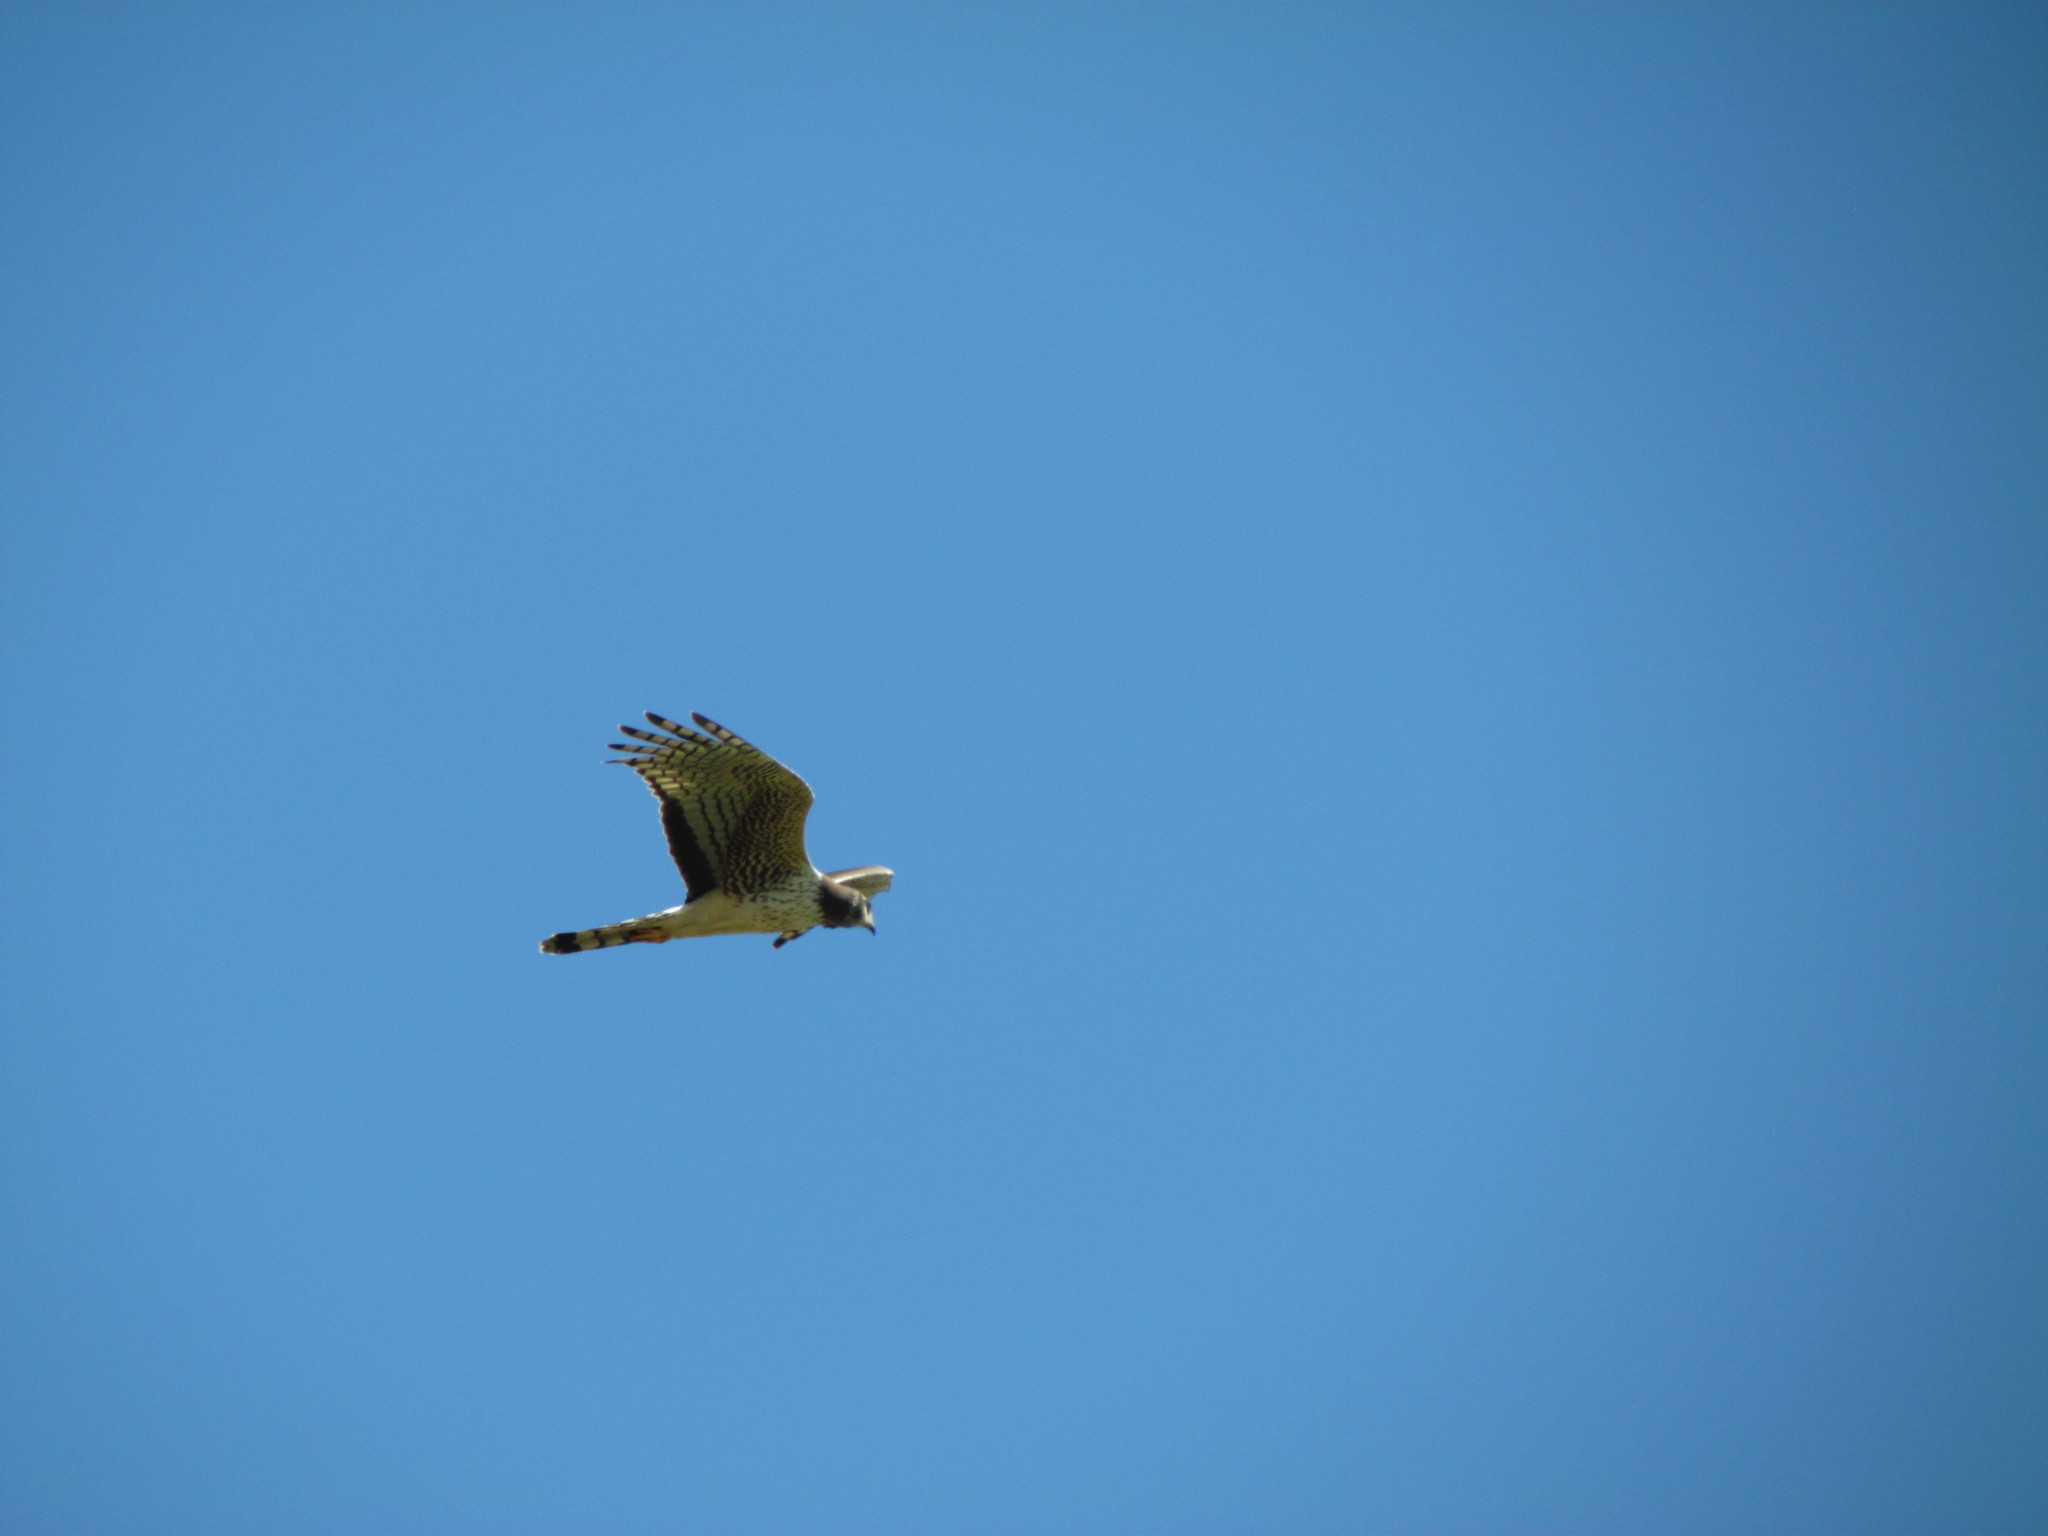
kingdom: Animalia
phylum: Chordata
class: Aves
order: Accipitriformes
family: Accipitridae
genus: Circus
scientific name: Circus buffoni
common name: Long-winged harrier
